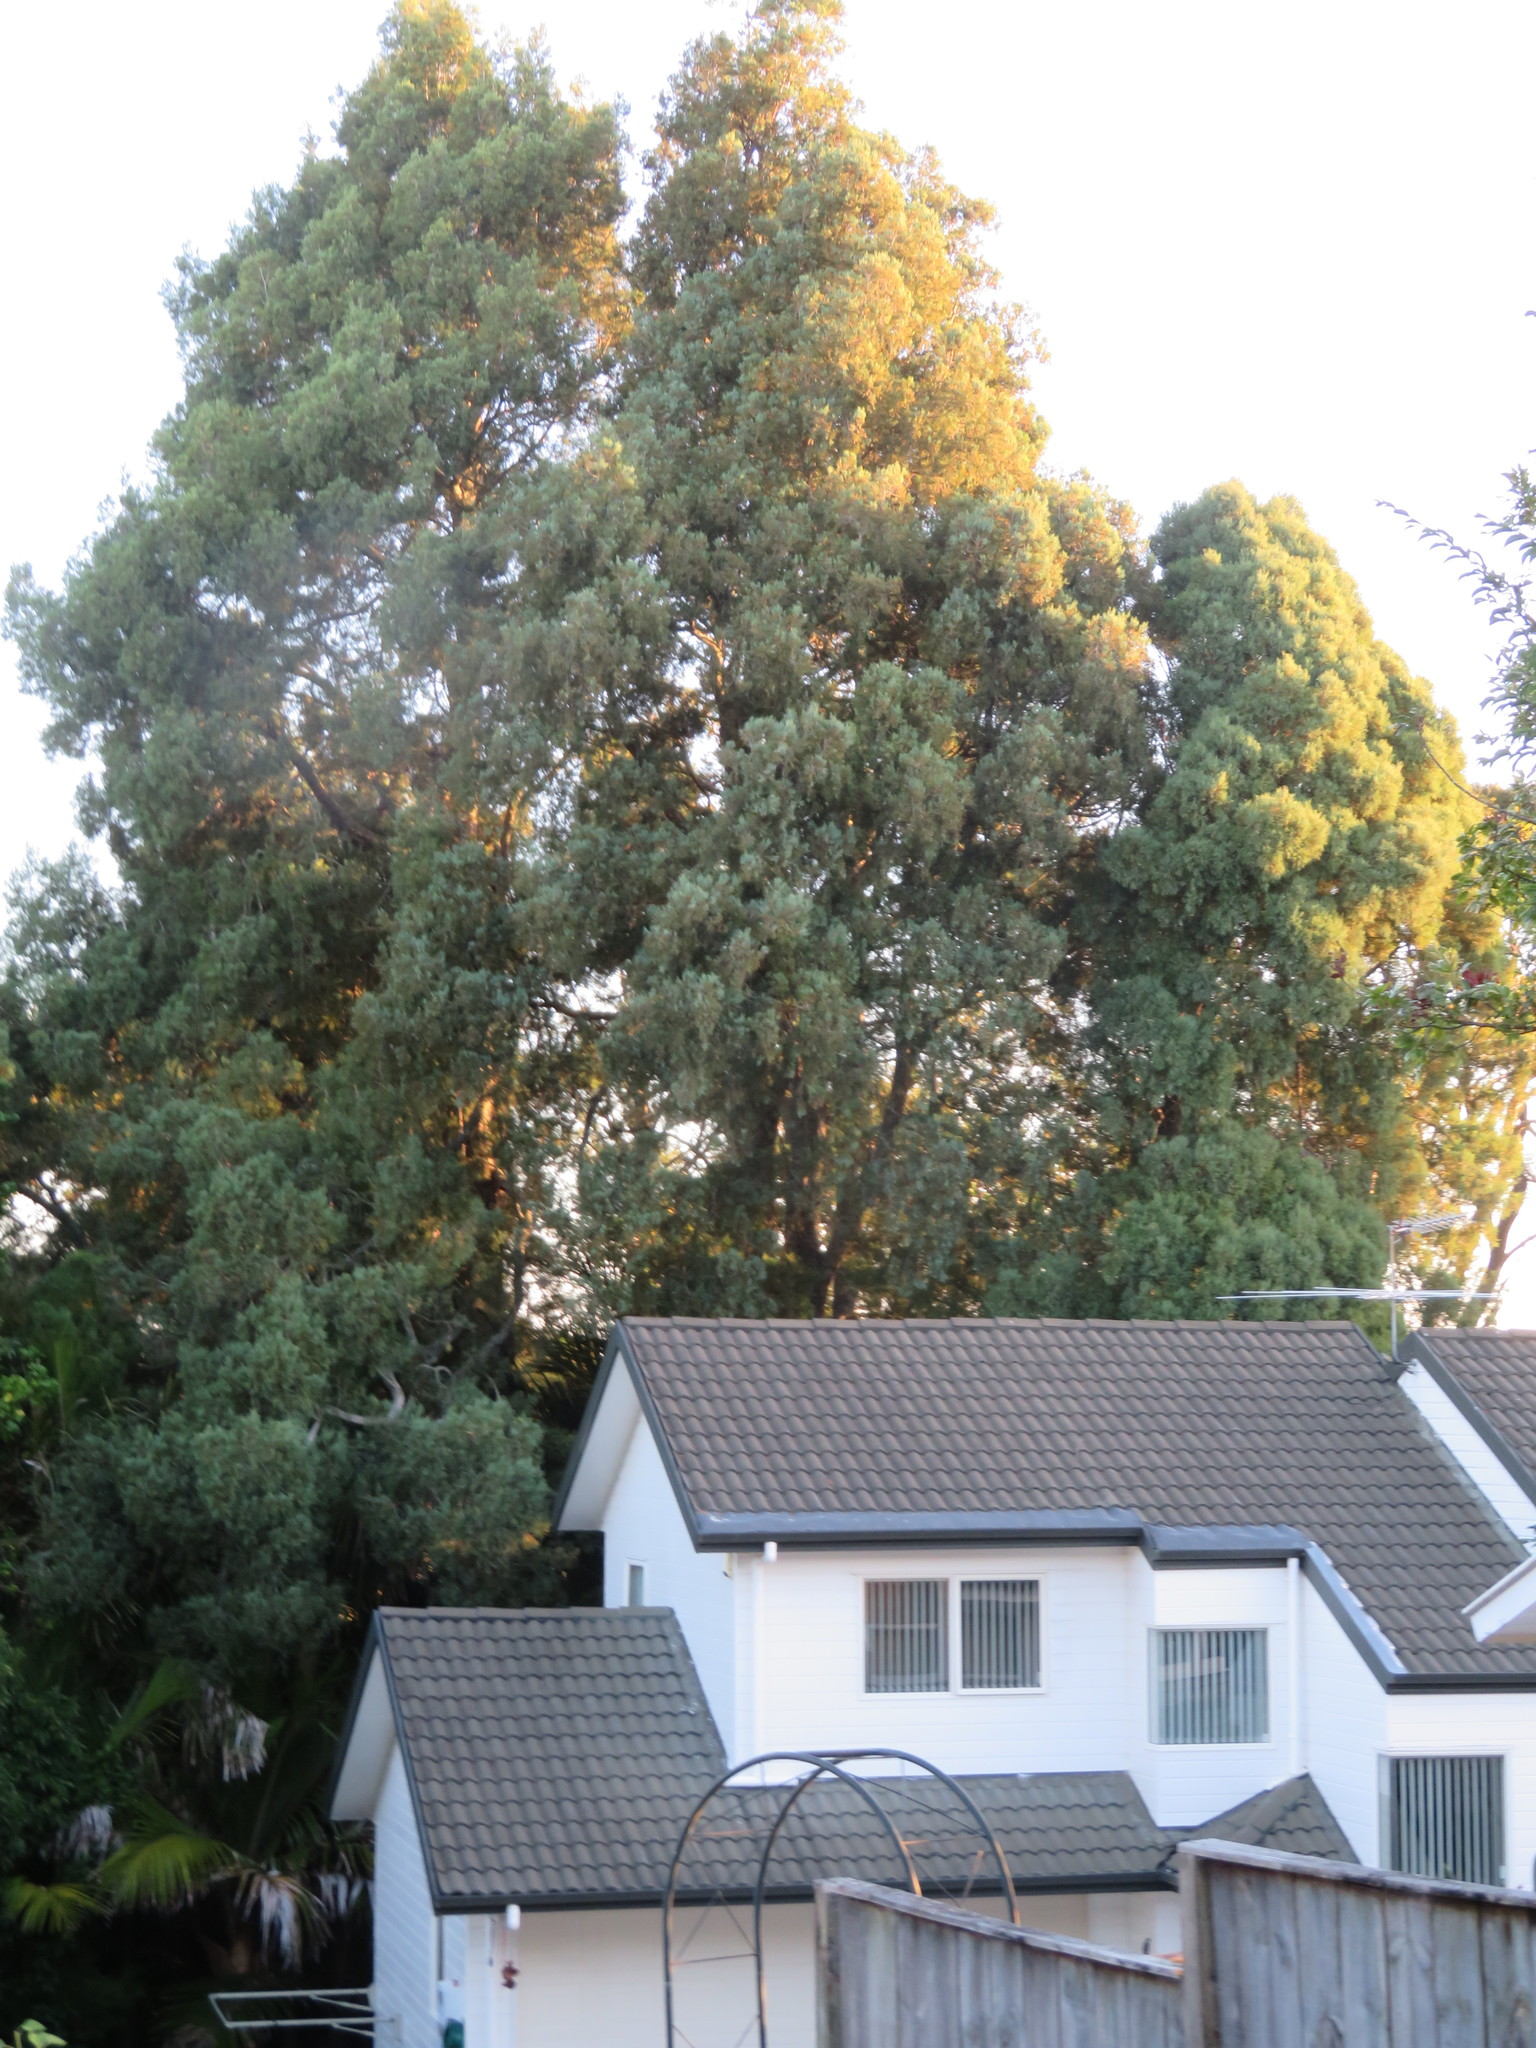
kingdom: Plantae
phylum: Tracheophyta
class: Pinopsida
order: Pinales
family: Podocarpaceae
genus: Dacrycarpus
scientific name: Dacrycarpus dacrydioides
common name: White pine
